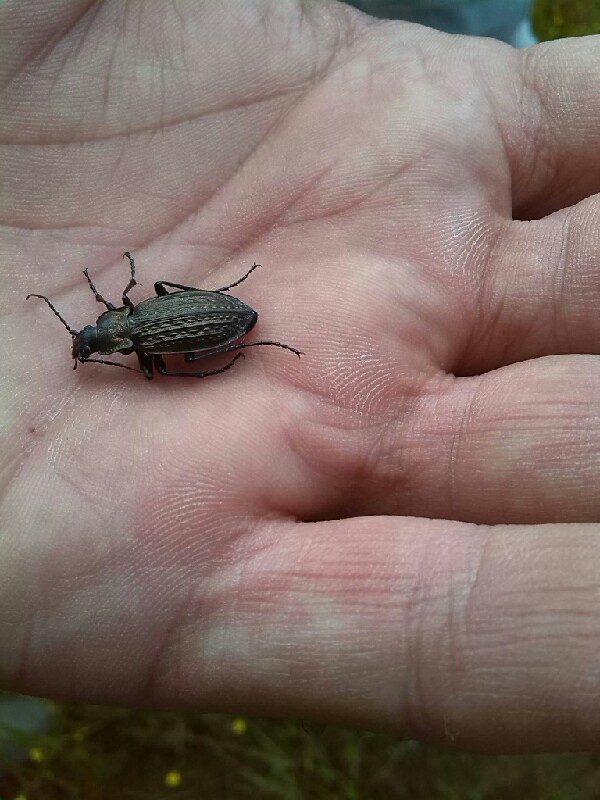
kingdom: Animalia
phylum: Arthropoda
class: Insecta
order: Coleoptera
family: Carabidae
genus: Carabus
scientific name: Carabus granulatus
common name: Granulate ground beetle
